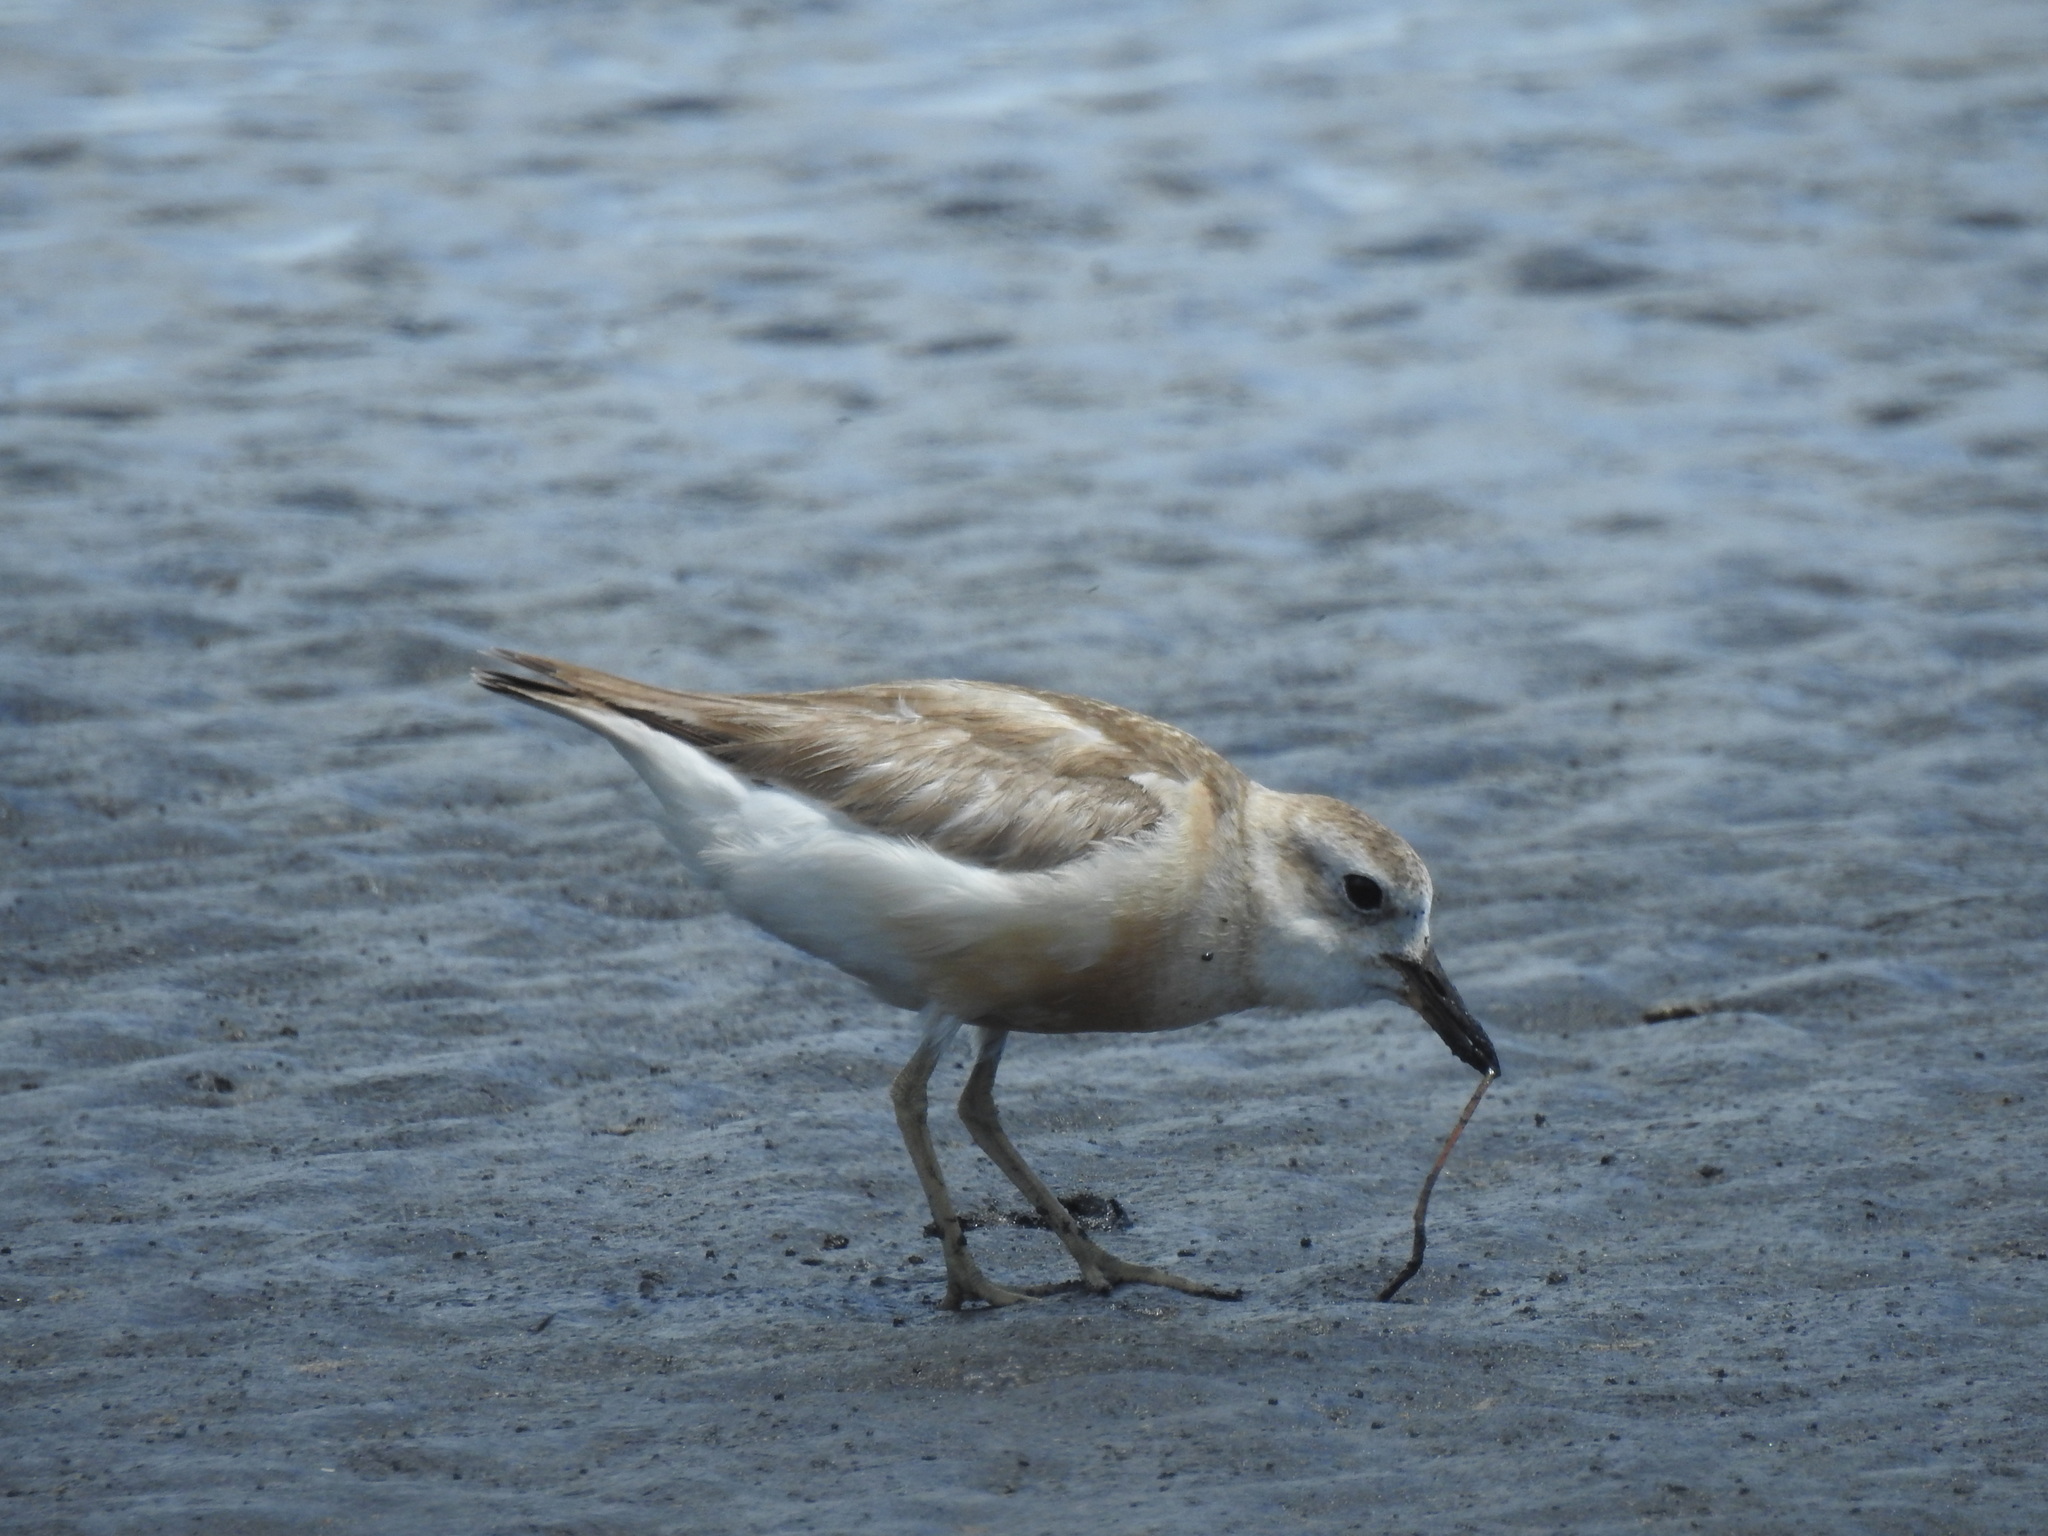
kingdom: Animalia
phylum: Chordata
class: Aves
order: Charadriiformes
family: Charadriidae
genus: Anarhynchus
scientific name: Anarhynchus
